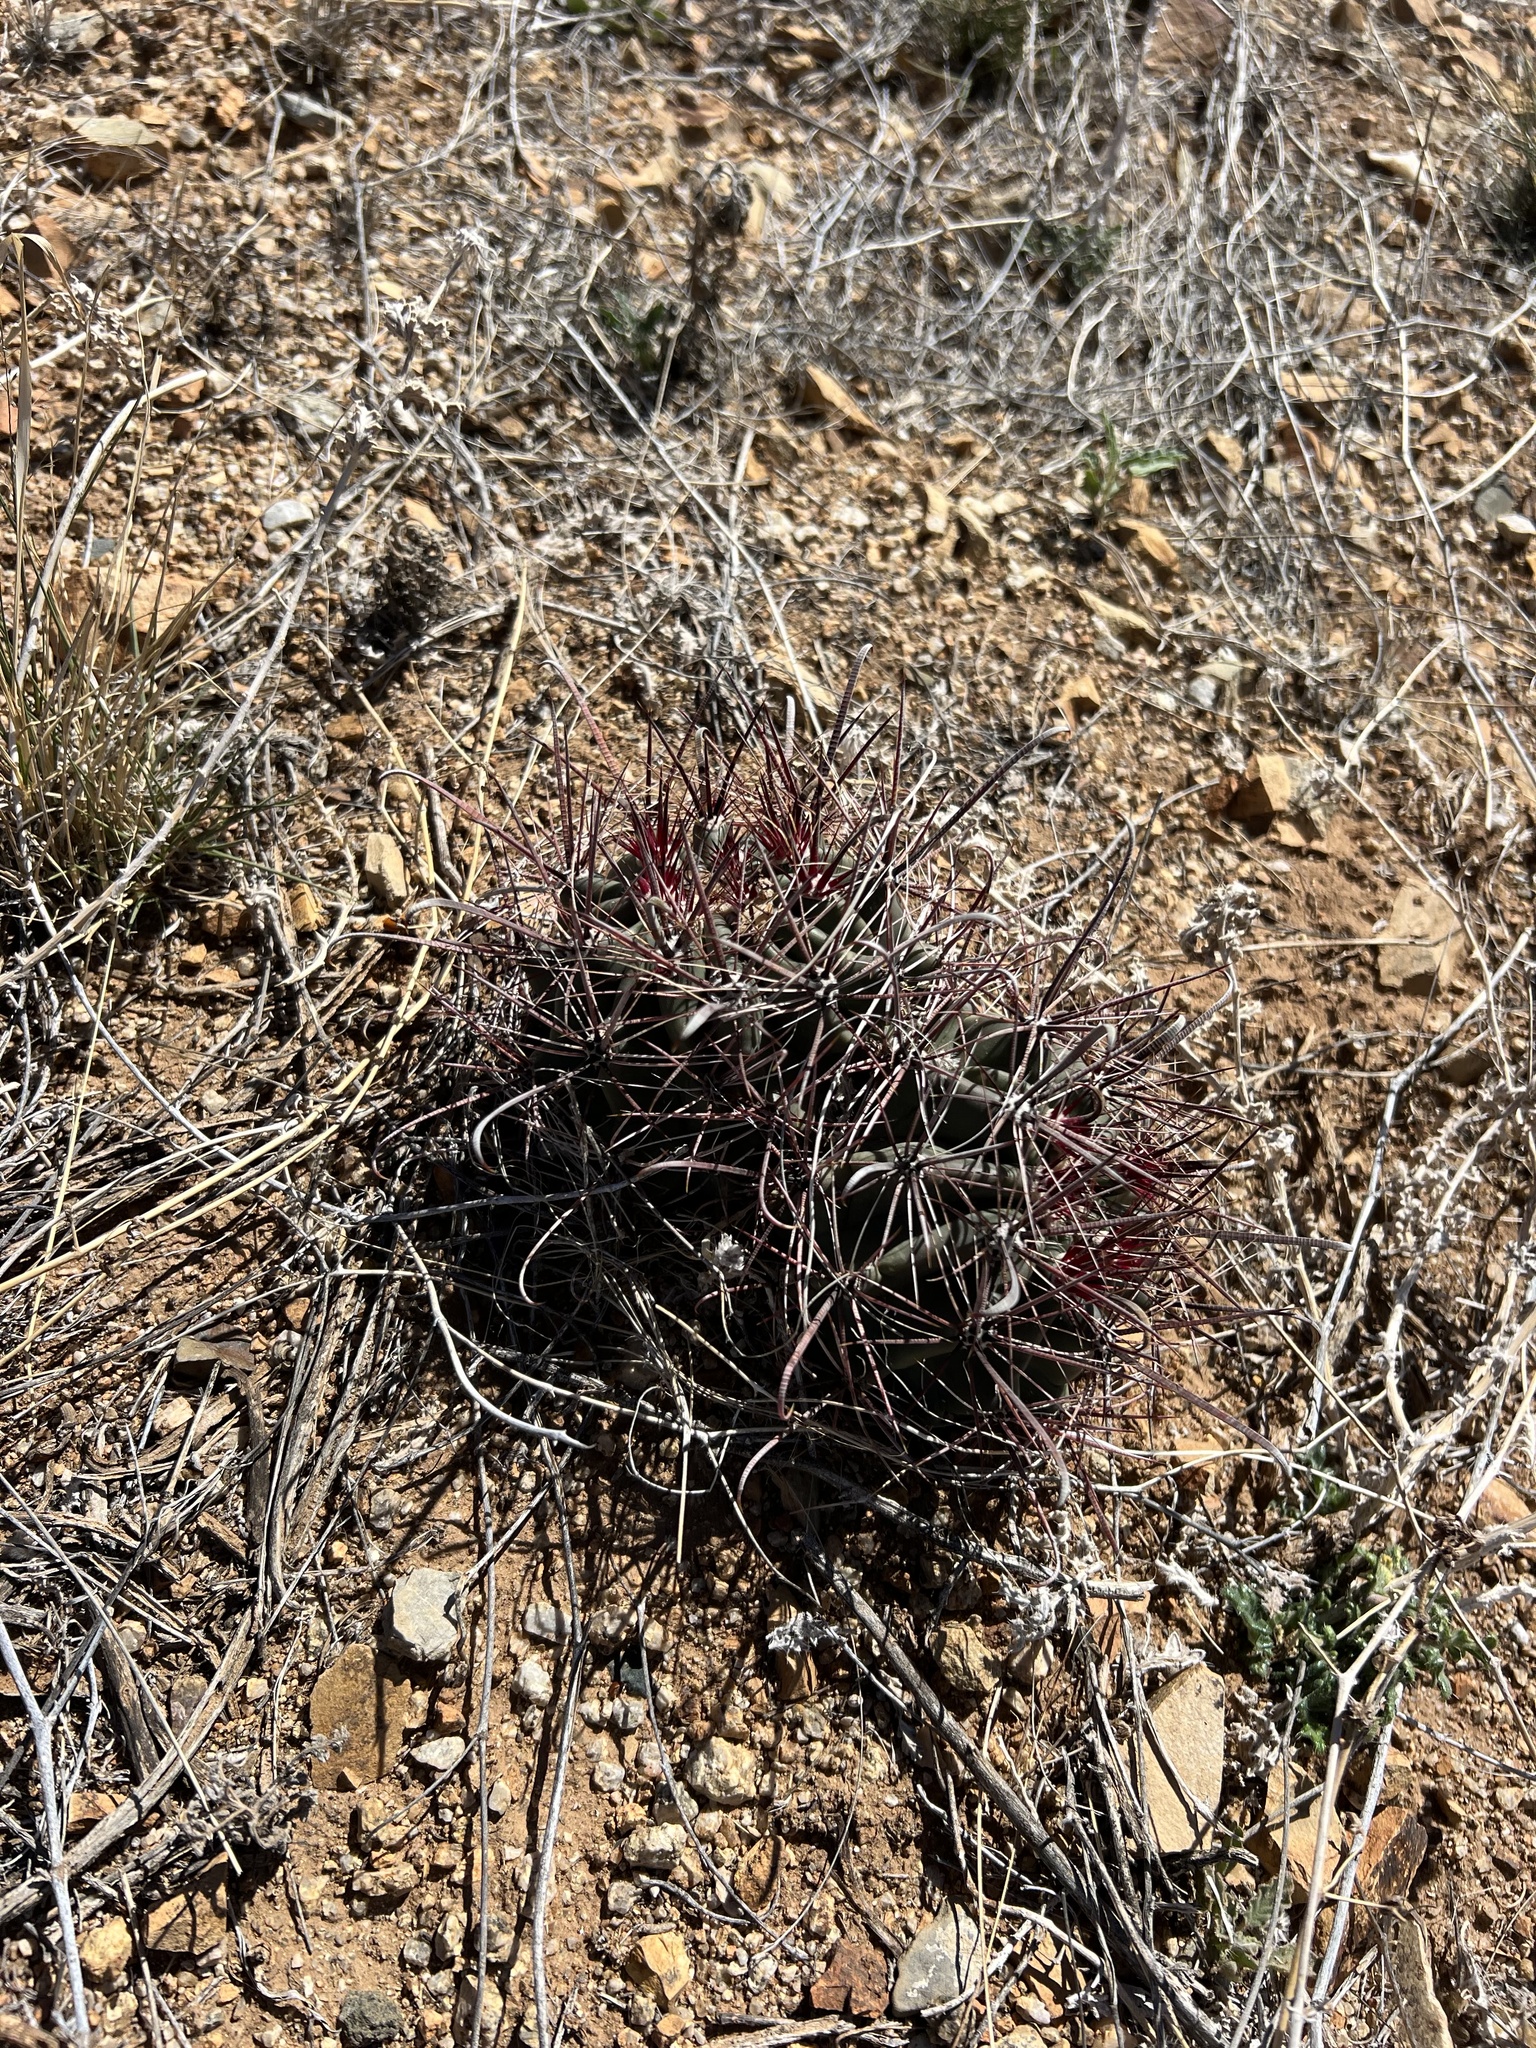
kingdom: Plantae
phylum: Tracheophyta
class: Magnoliopsida
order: Caryophyllales
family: Cactaceae
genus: Ferocactus
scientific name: Ferocactus wislizeni
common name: Candy barrel cactus
